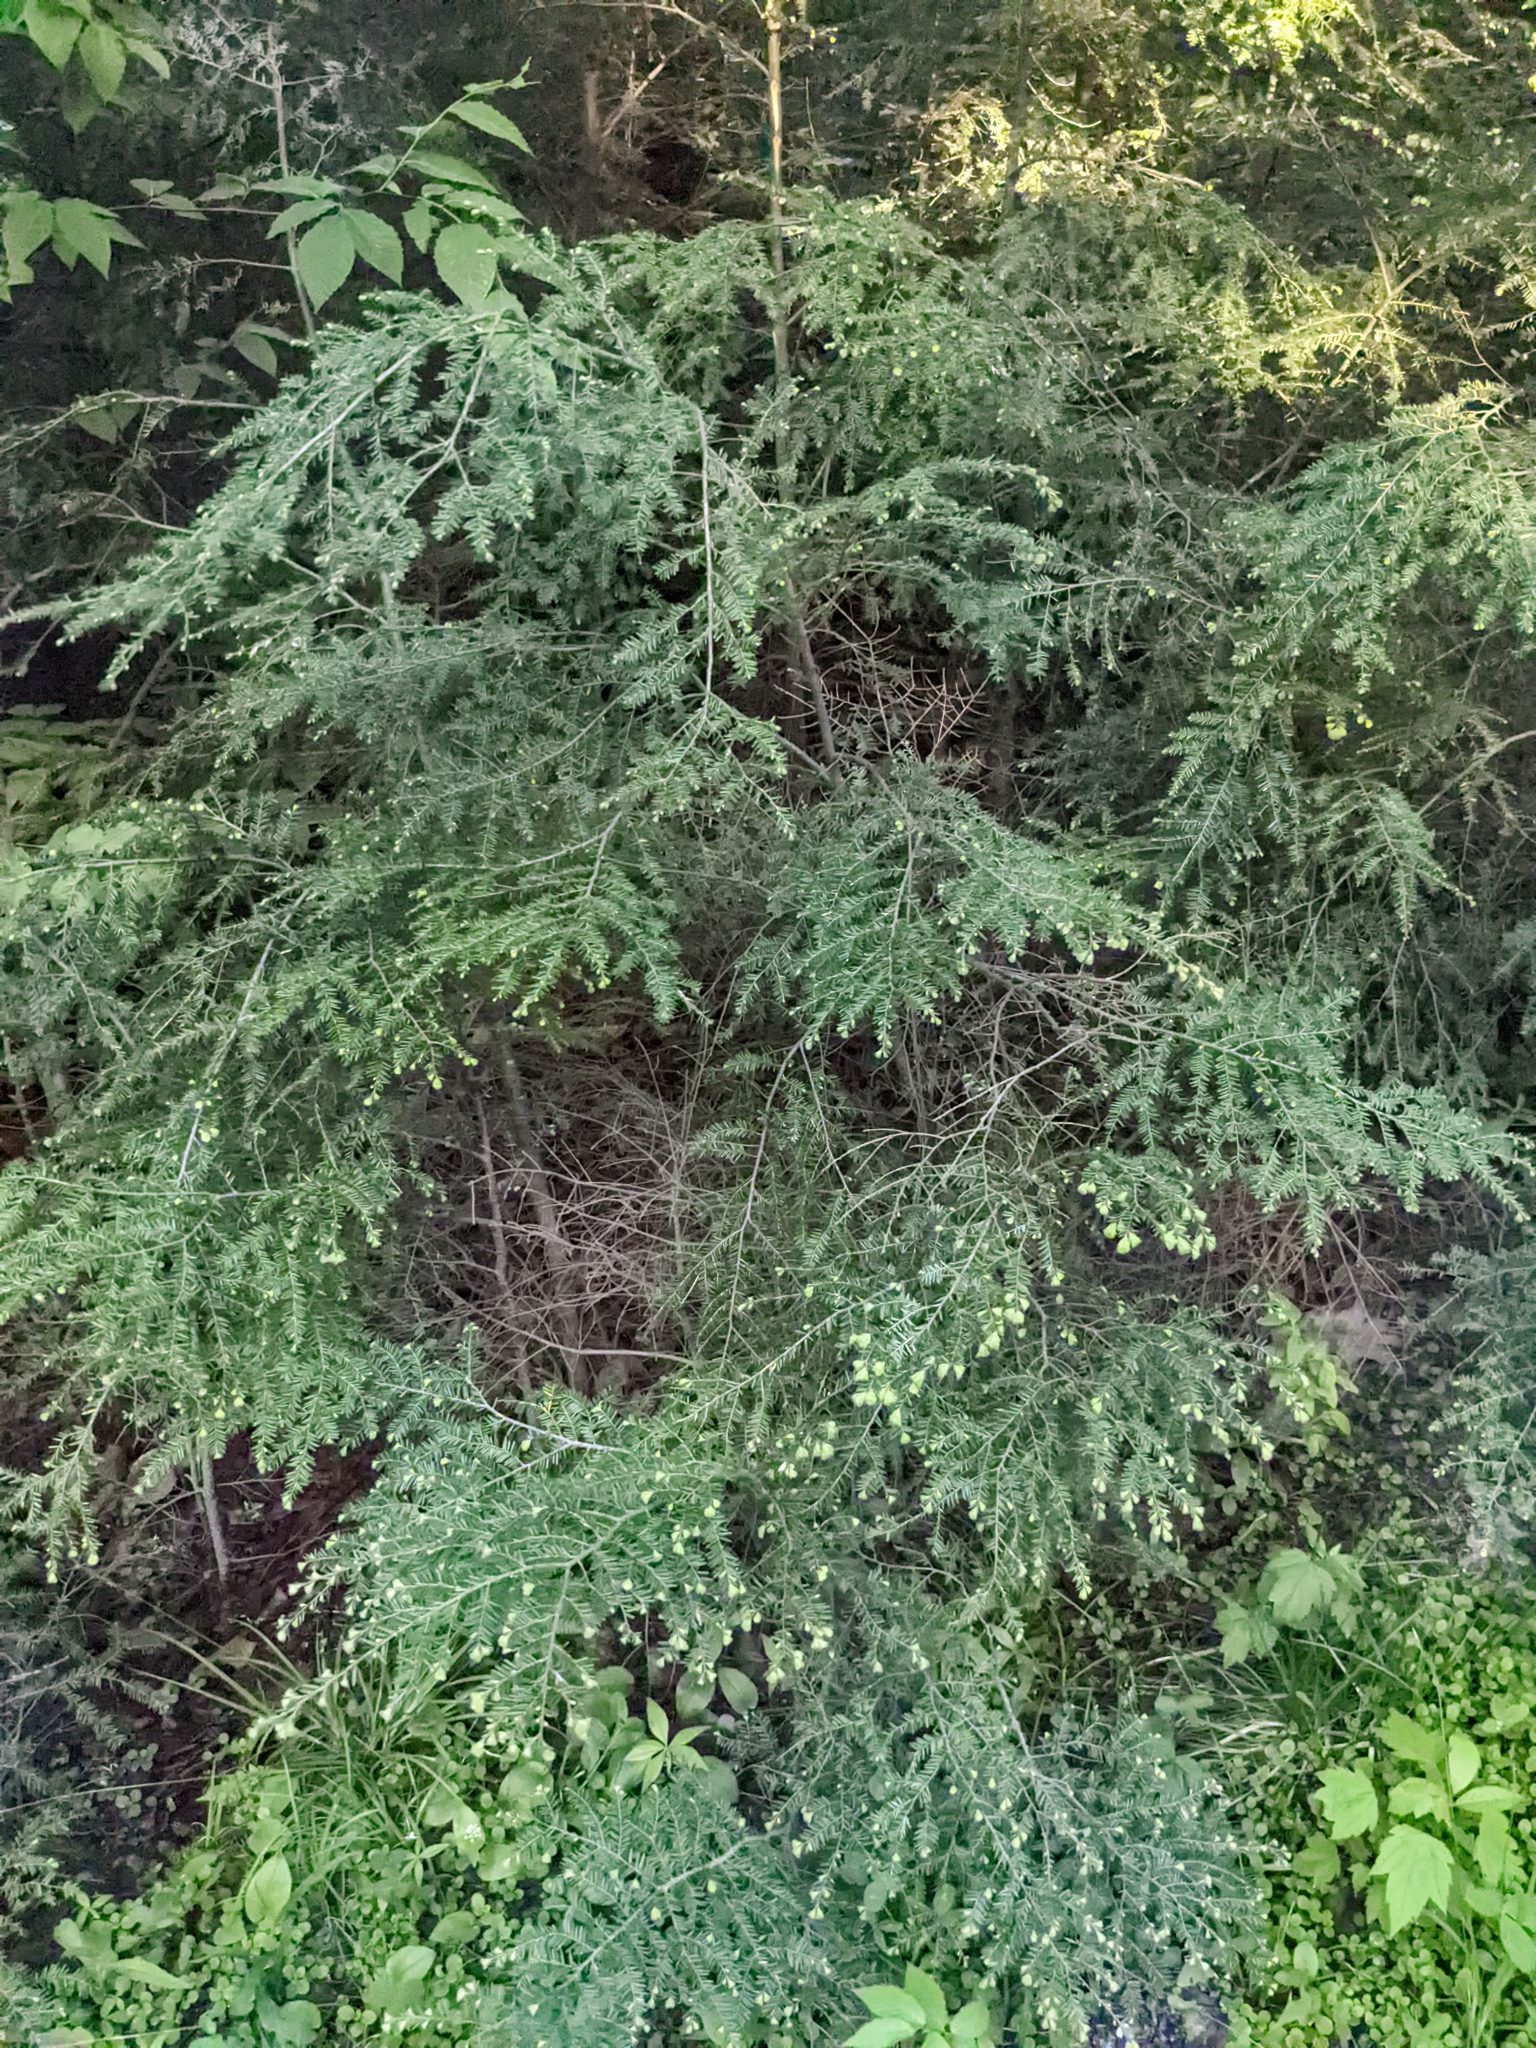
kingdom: Plantae
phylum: Tracheophyta
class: Pinopsida
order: Pinales
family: Pinaceae
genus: Tsuga
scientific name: Tsuga canadensis
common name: Eastern hemlock
